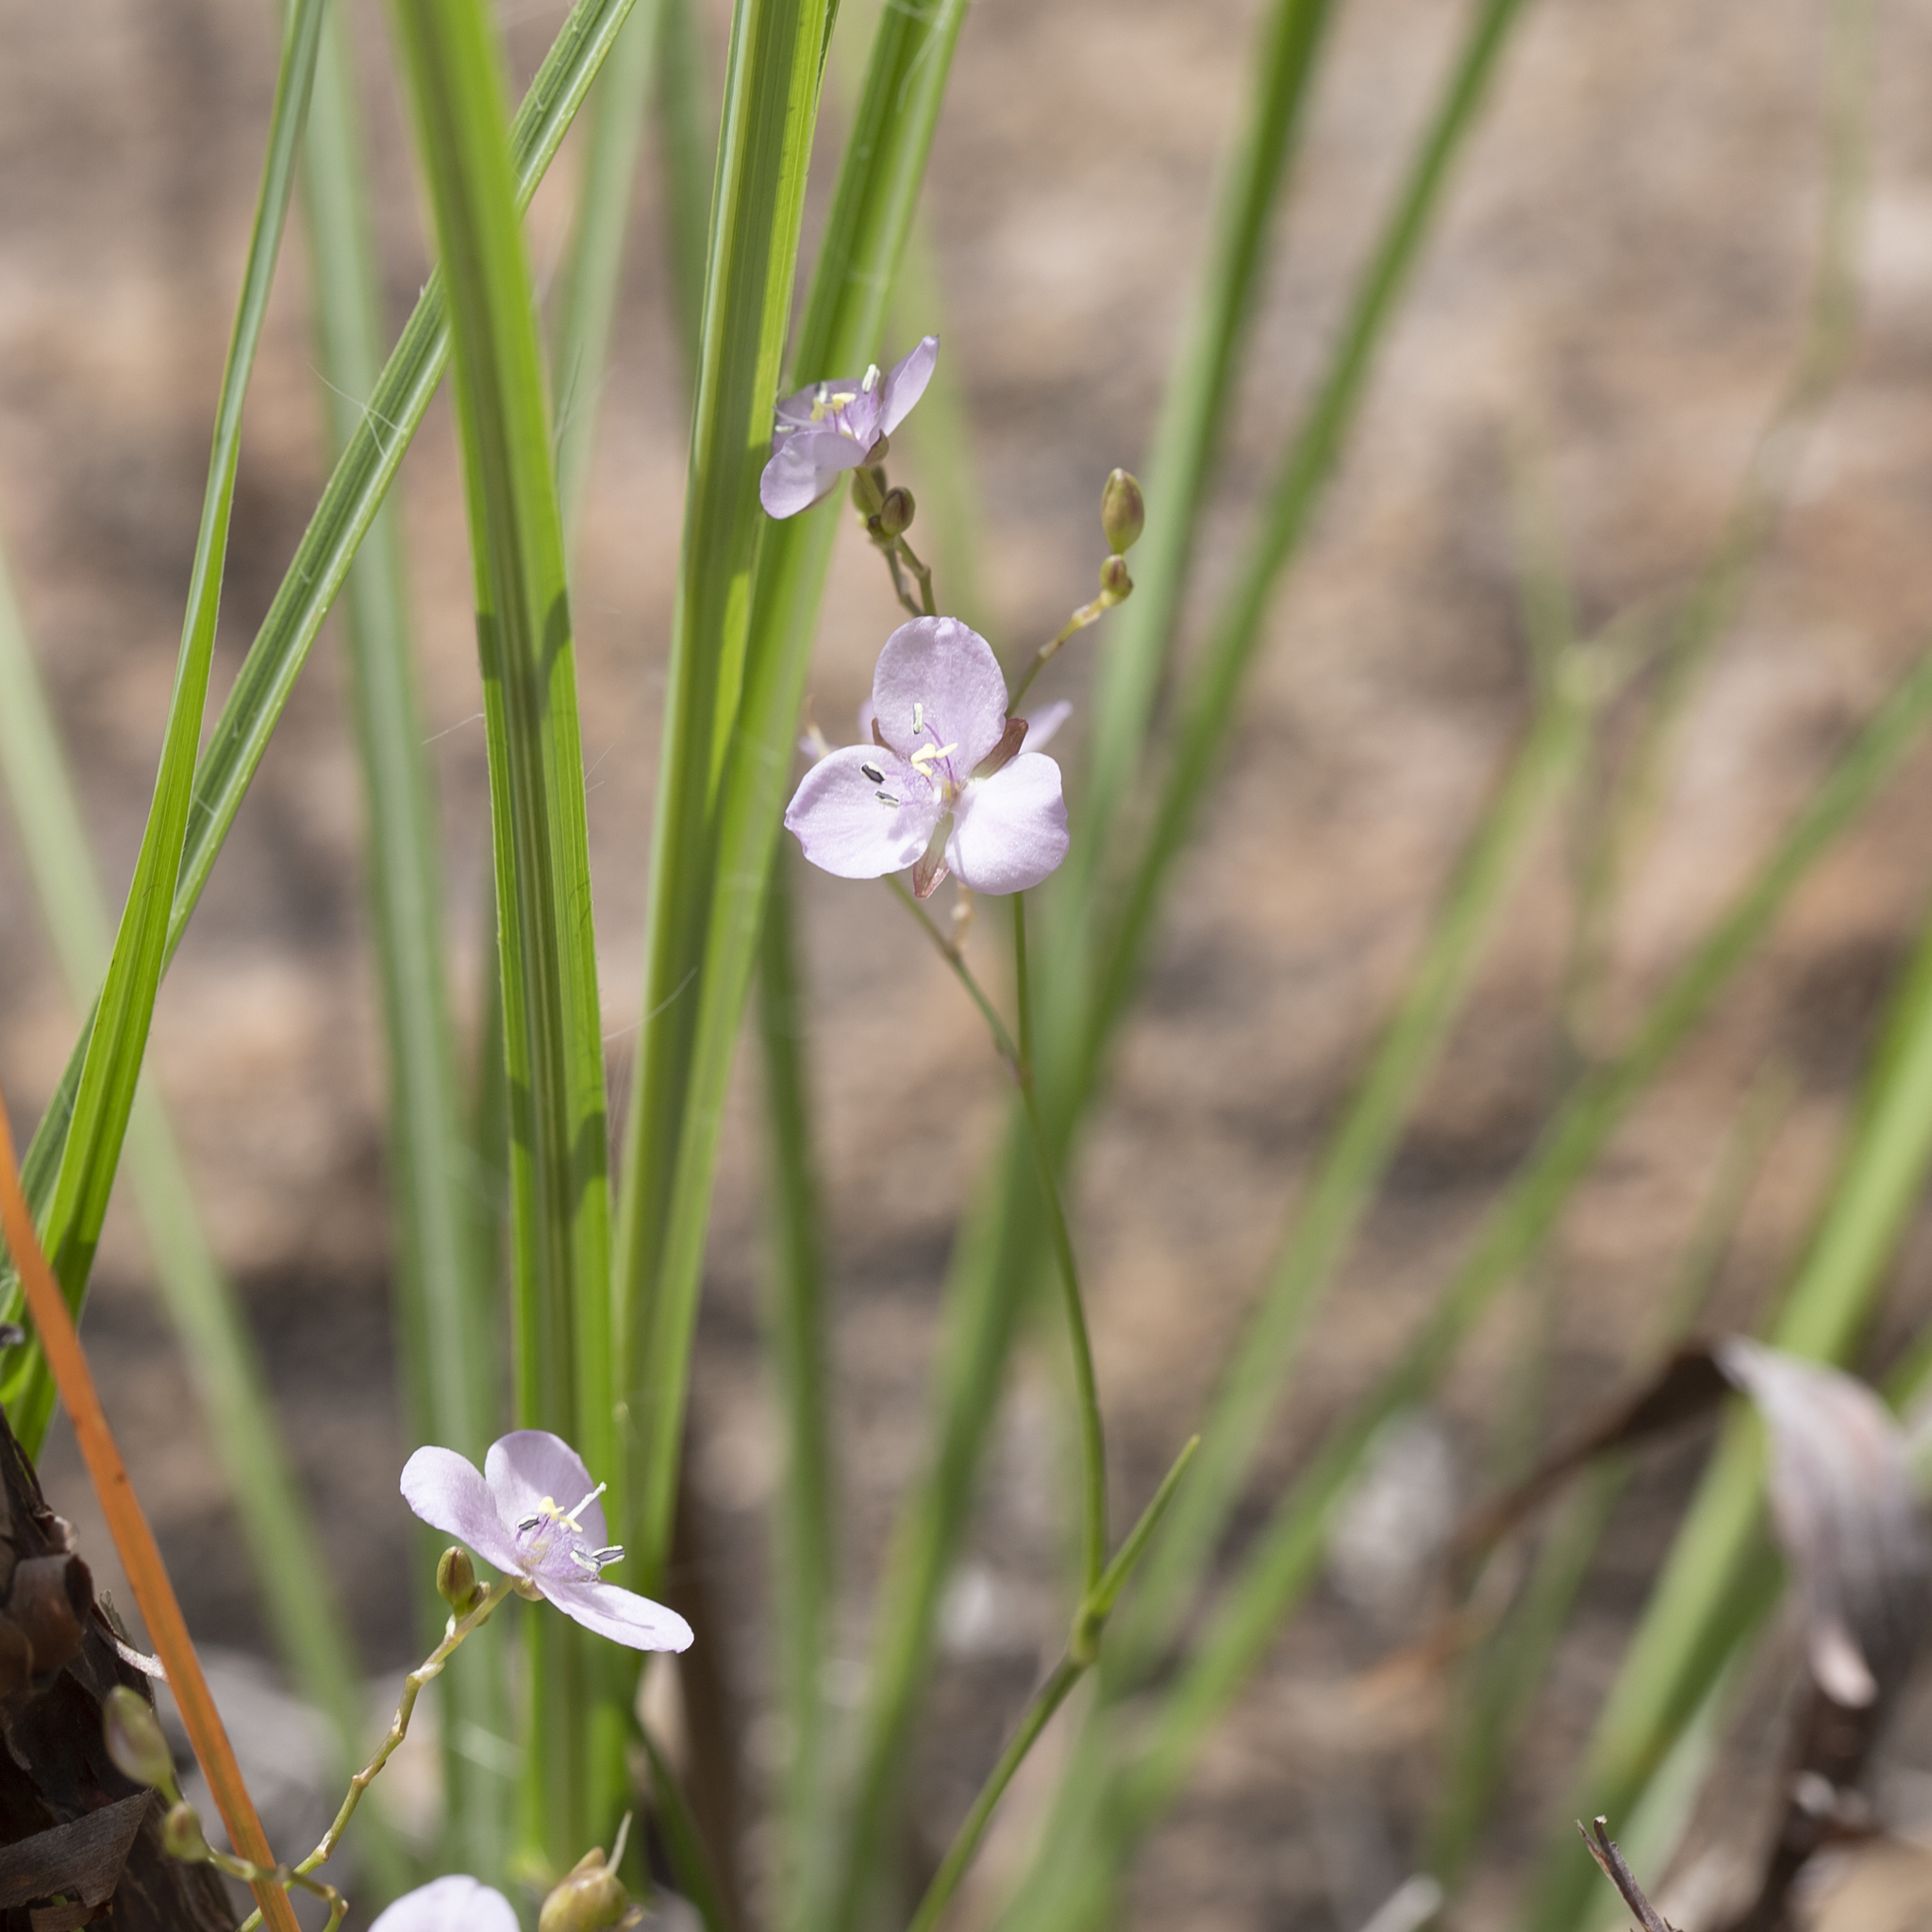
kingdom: Plantae
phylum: Tracheophyta
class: Liliopsida
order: Commelinales
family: Commelinaceae
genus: Murdannia
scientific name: Murdannia graminea
